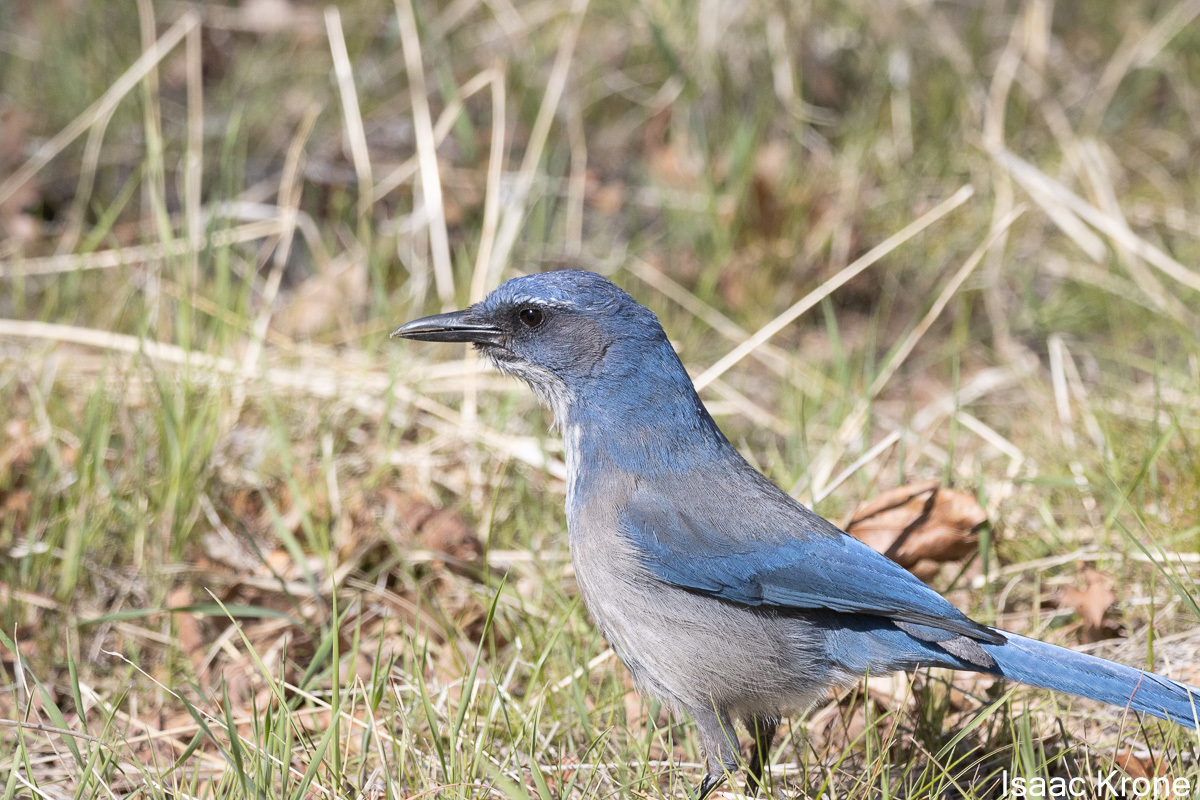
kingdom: Animalia
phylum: Chordata
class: Aves
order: Passeriformes
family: Corvidae
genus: Aphelocoma
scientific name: Aphelocoma woodhouseii
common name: Woodhouse's scrub-jay
